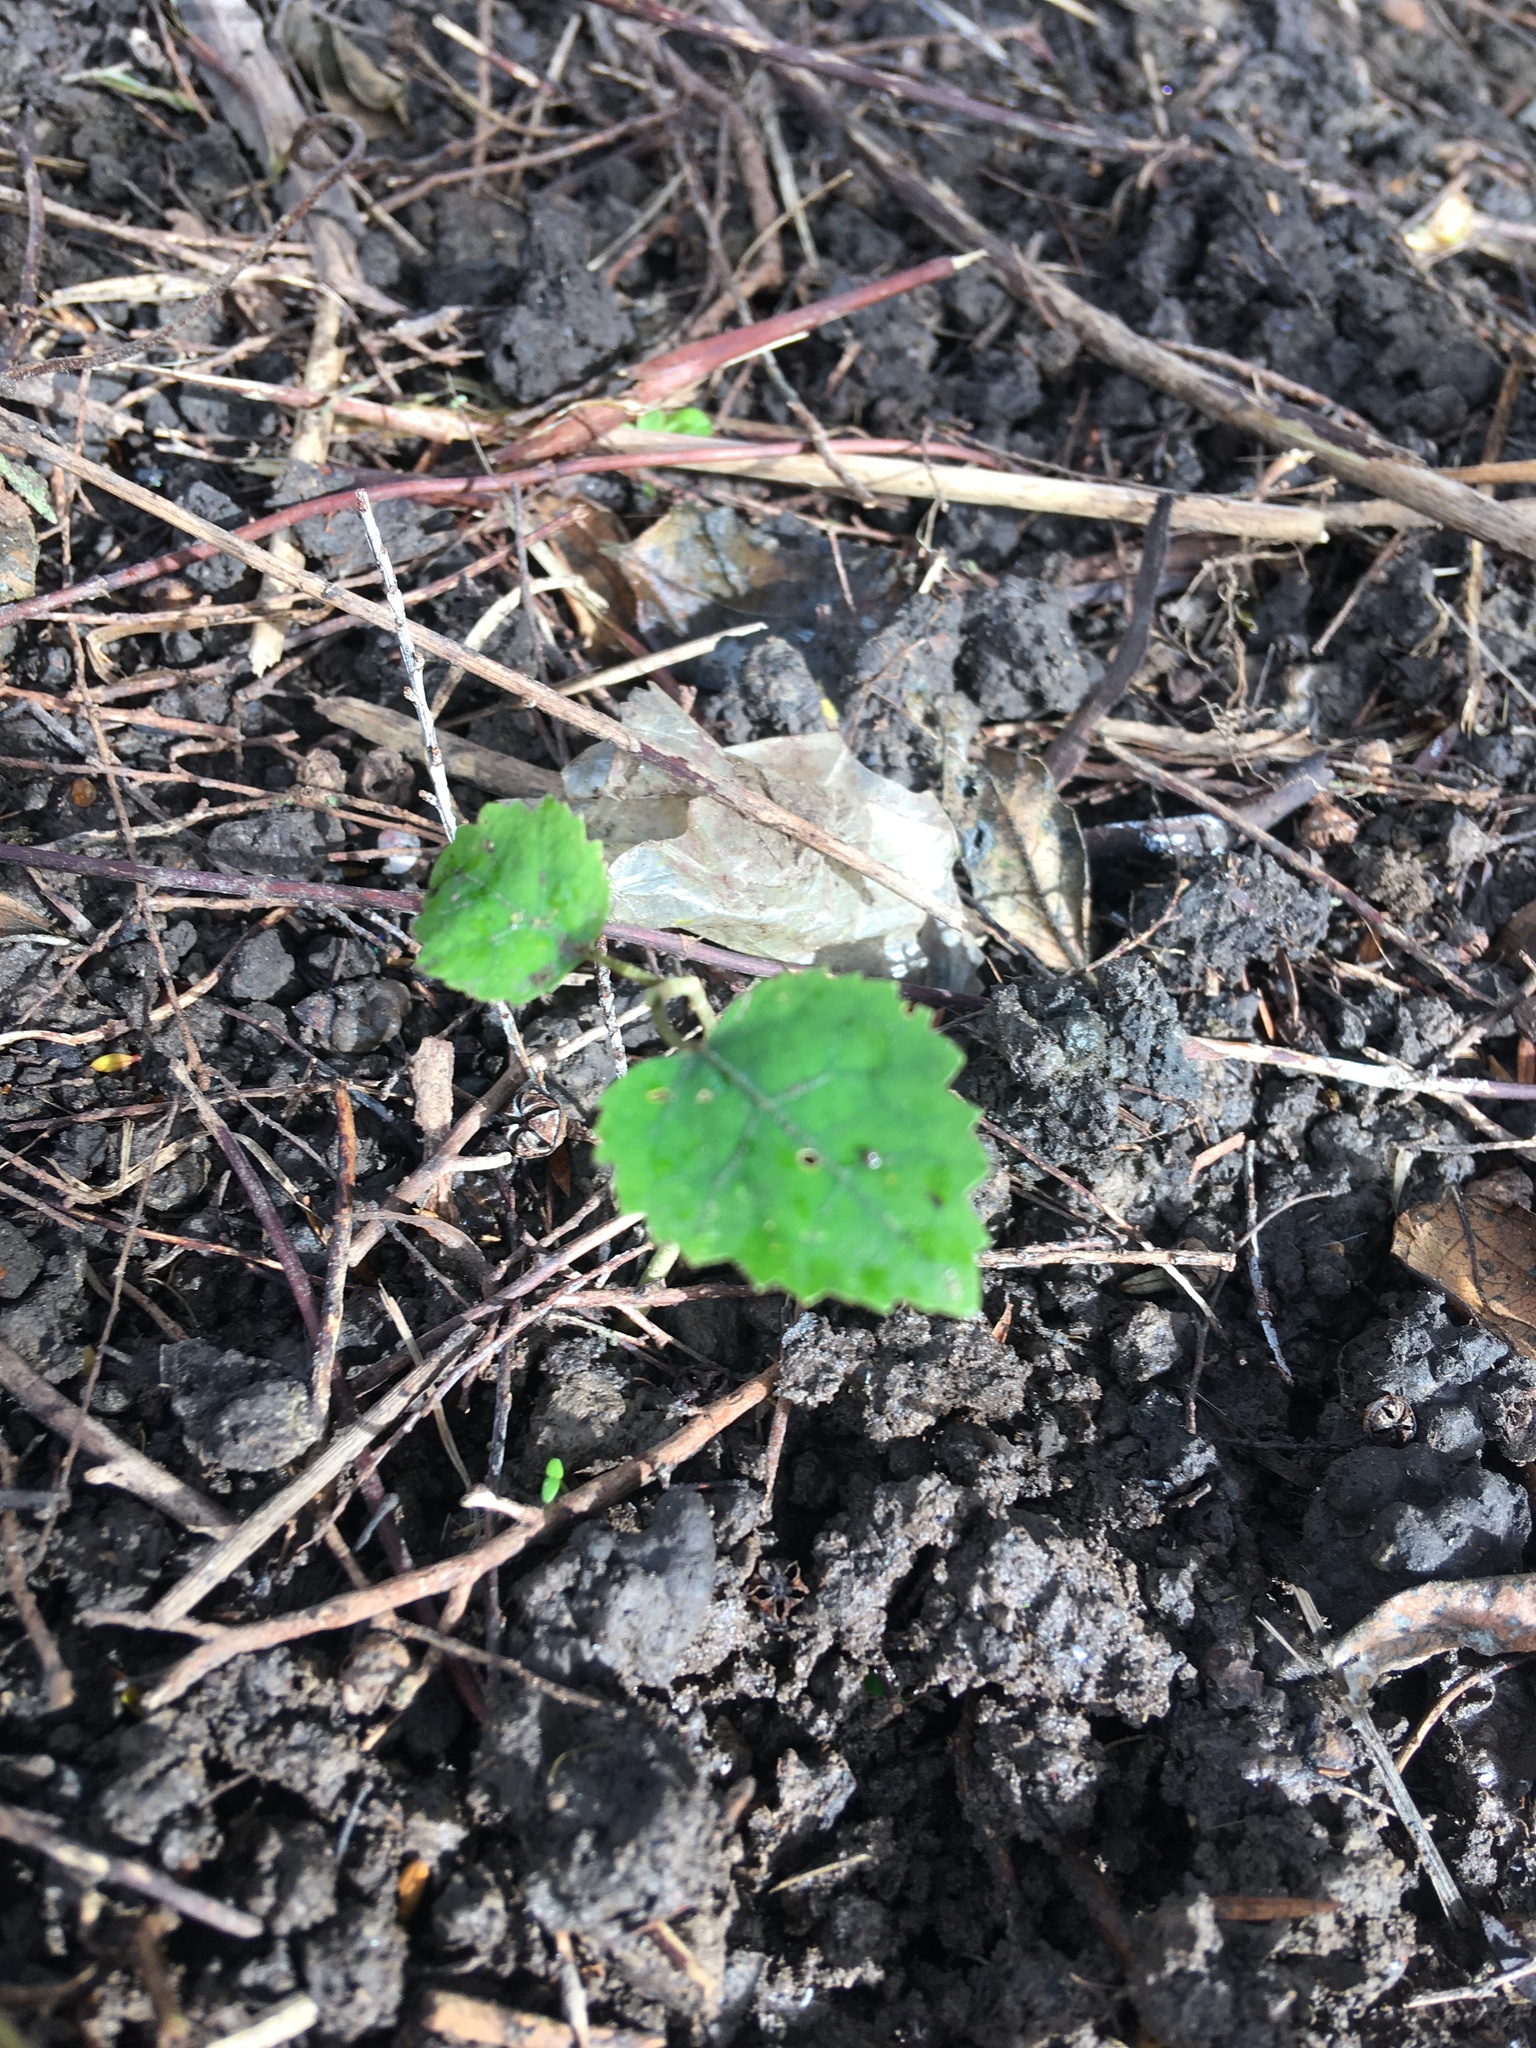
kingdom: Plantae
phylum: Tracheophyta
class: Magnoliopsida
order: Malvales
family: Malvaceae
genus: Hoheria
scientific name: Hoheria populnea
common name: Lacebark
